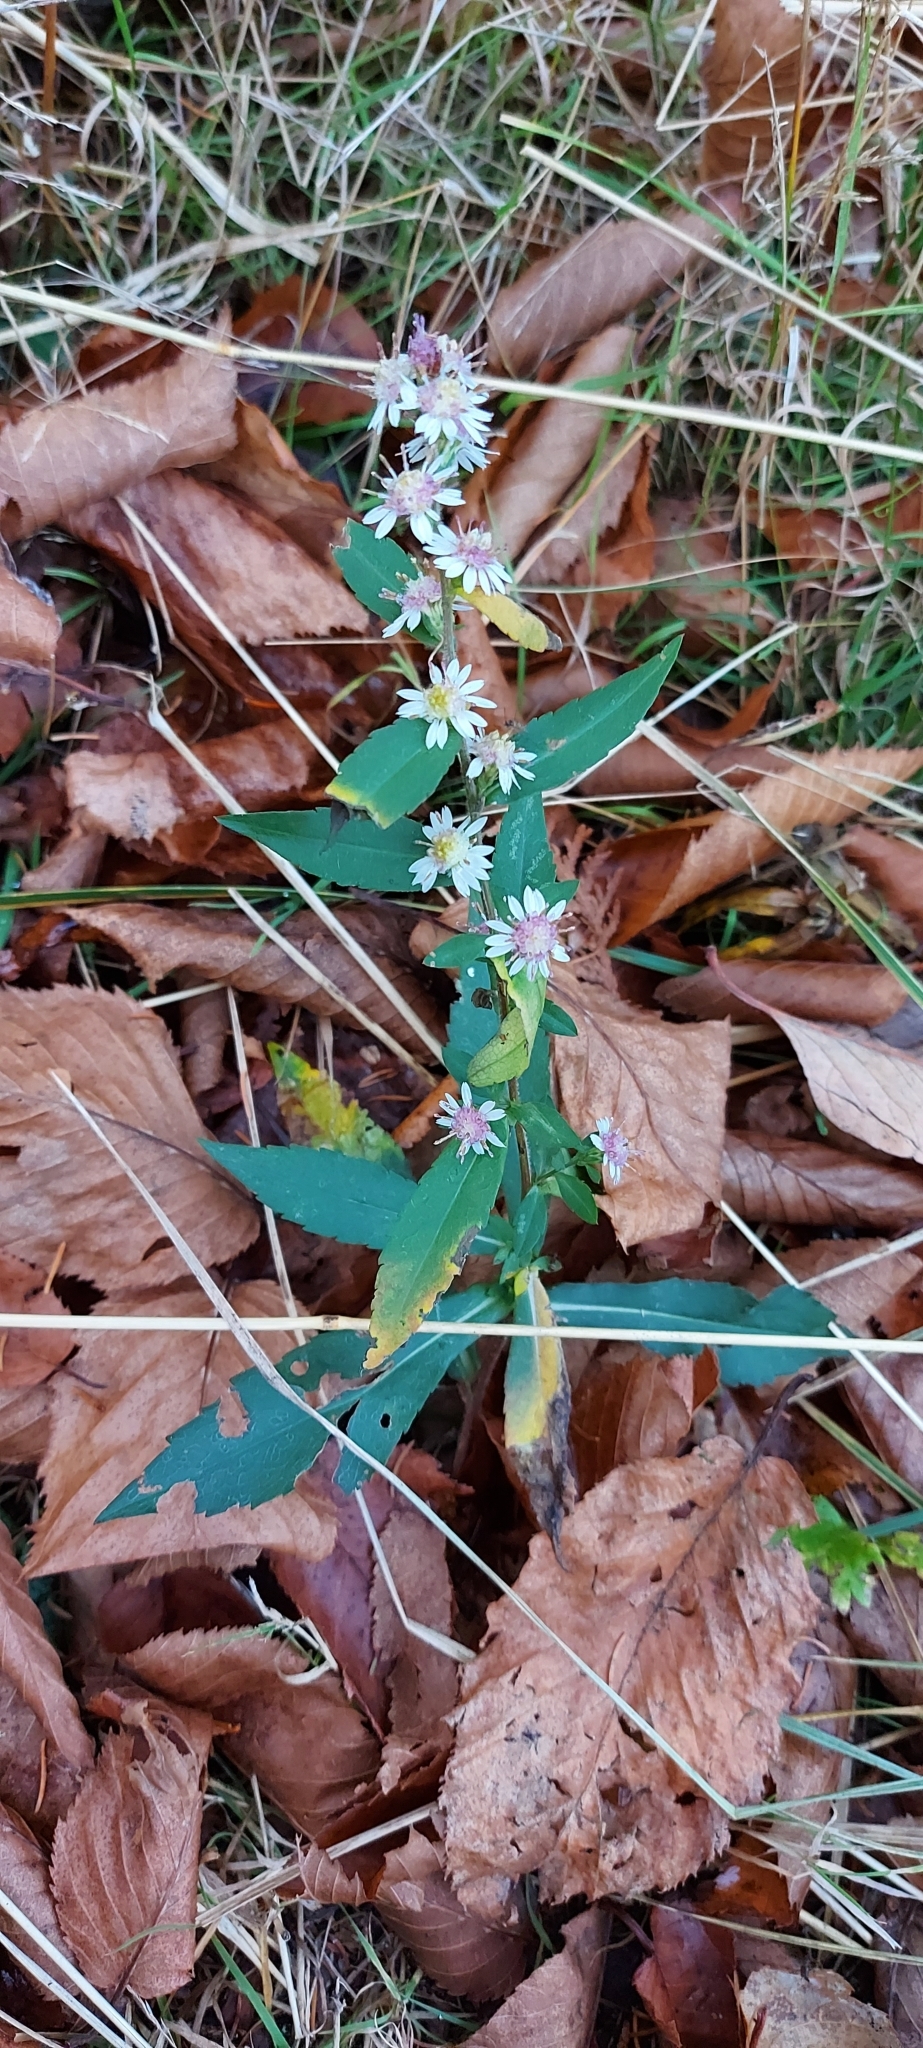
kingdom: Plantae
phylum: Tracheophyta
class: Magnoliopsida
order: Asterales
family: Asteraceae
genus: Symphyotrichum
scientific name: Symphyotrichum lateriflorum
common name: Calico aster
